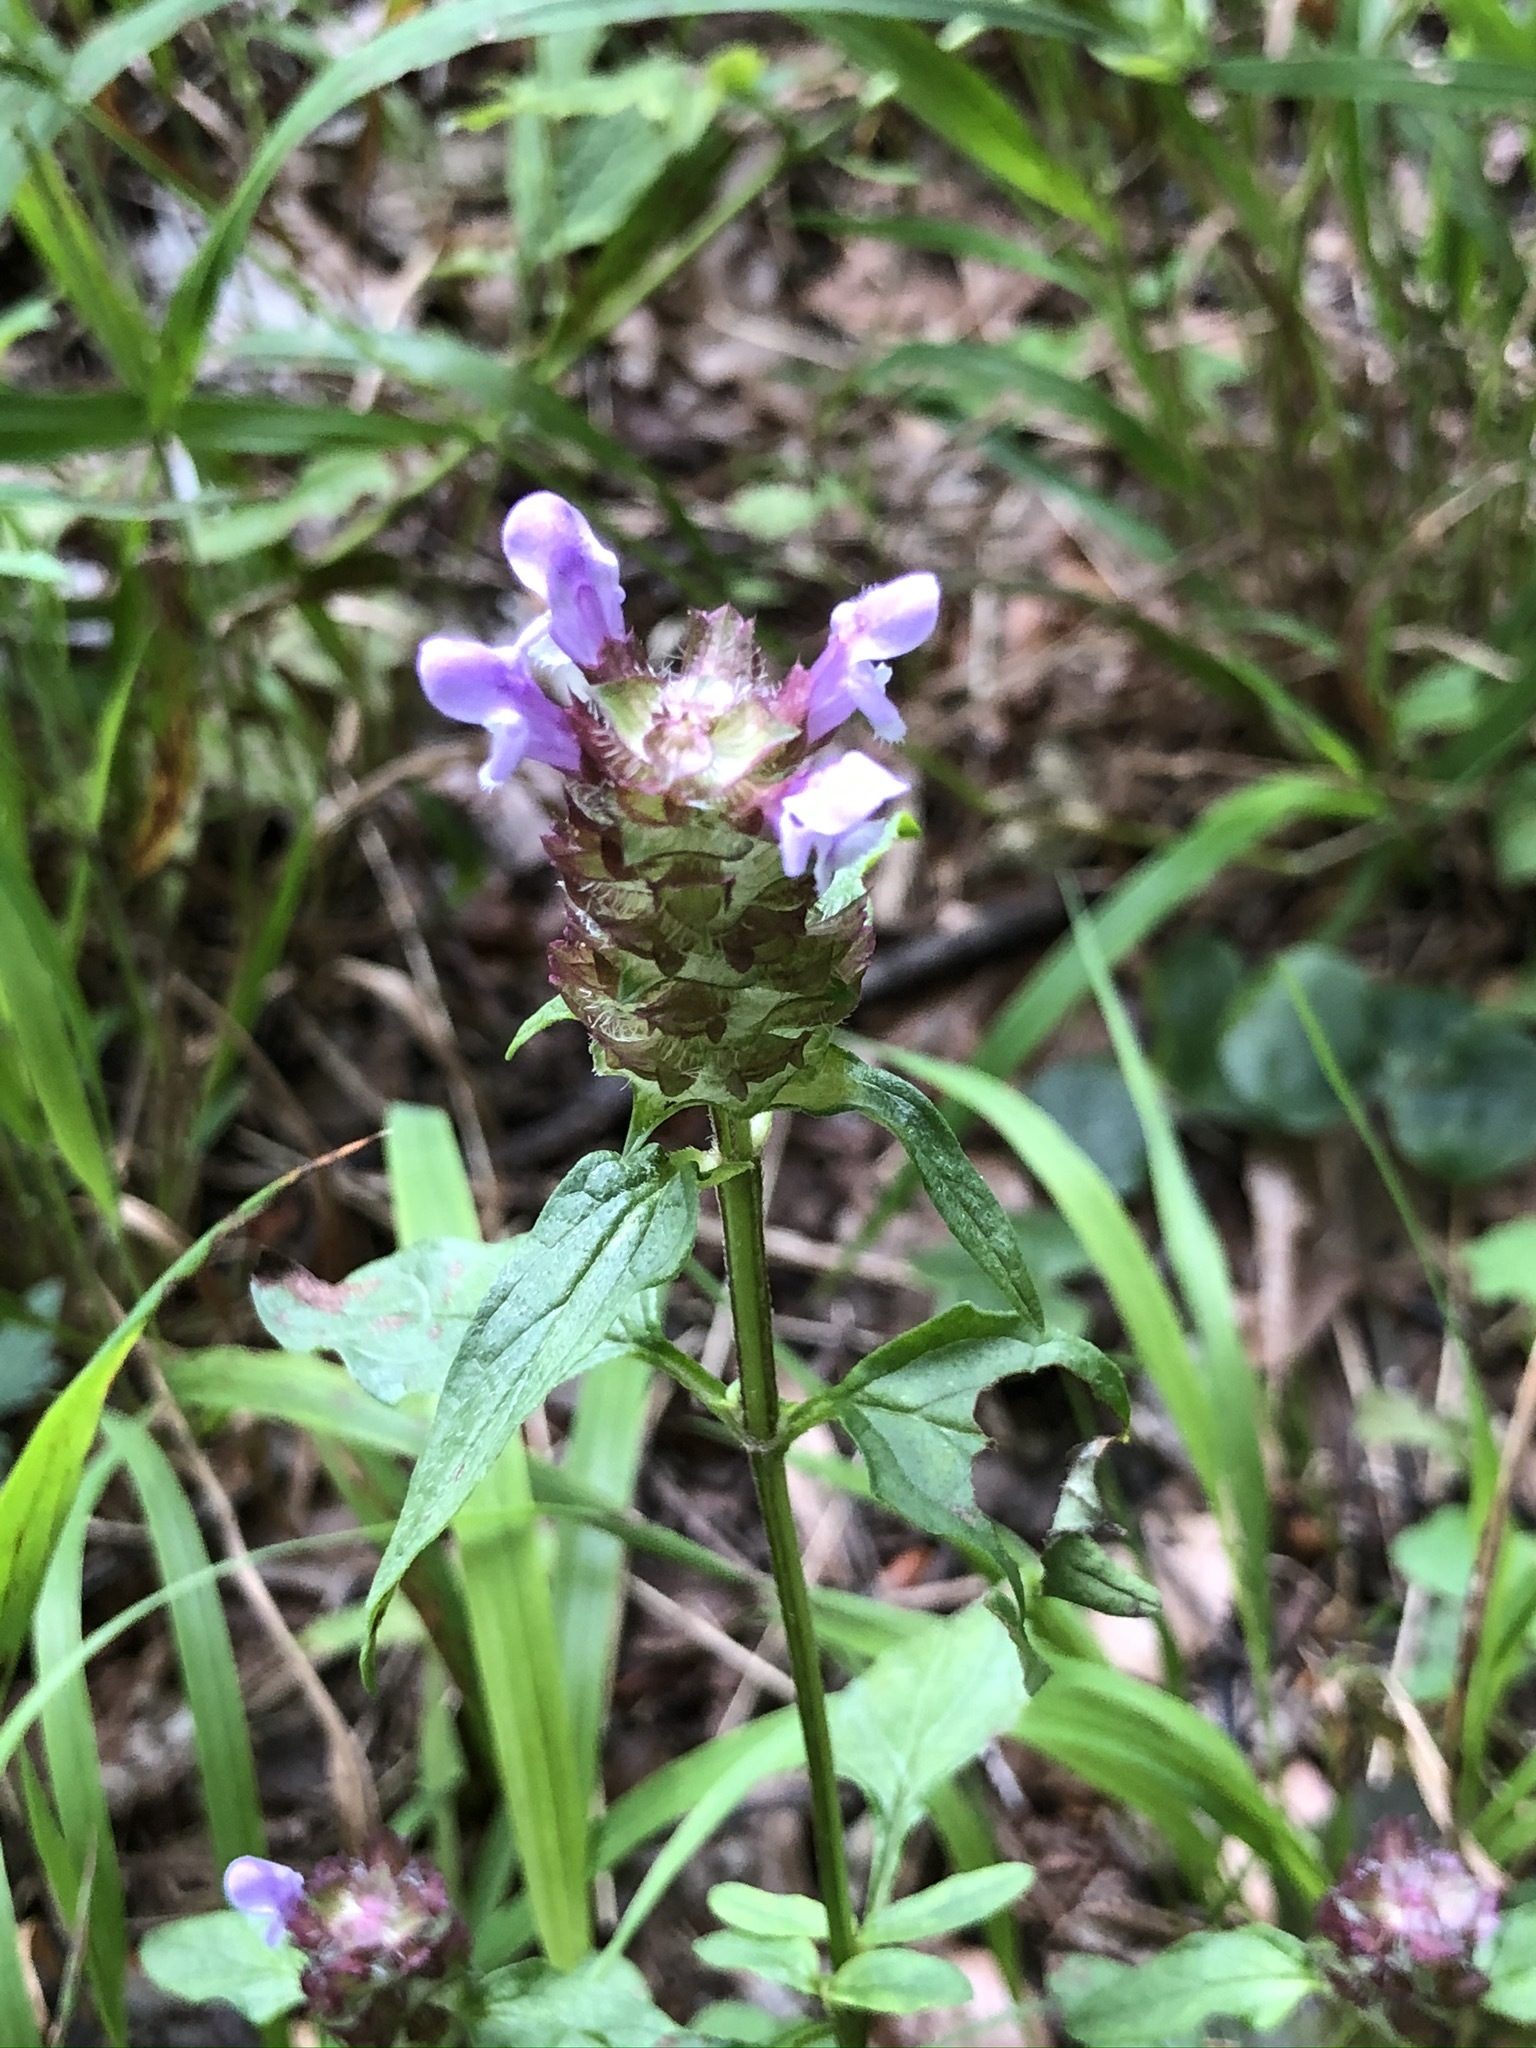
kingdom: Plantae
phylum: Tracheophyta
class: Magnoliopsida
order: Lamiales
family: Lamiaceae
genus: Prunella
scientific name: Prunella vulgaris
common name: Heal-all
